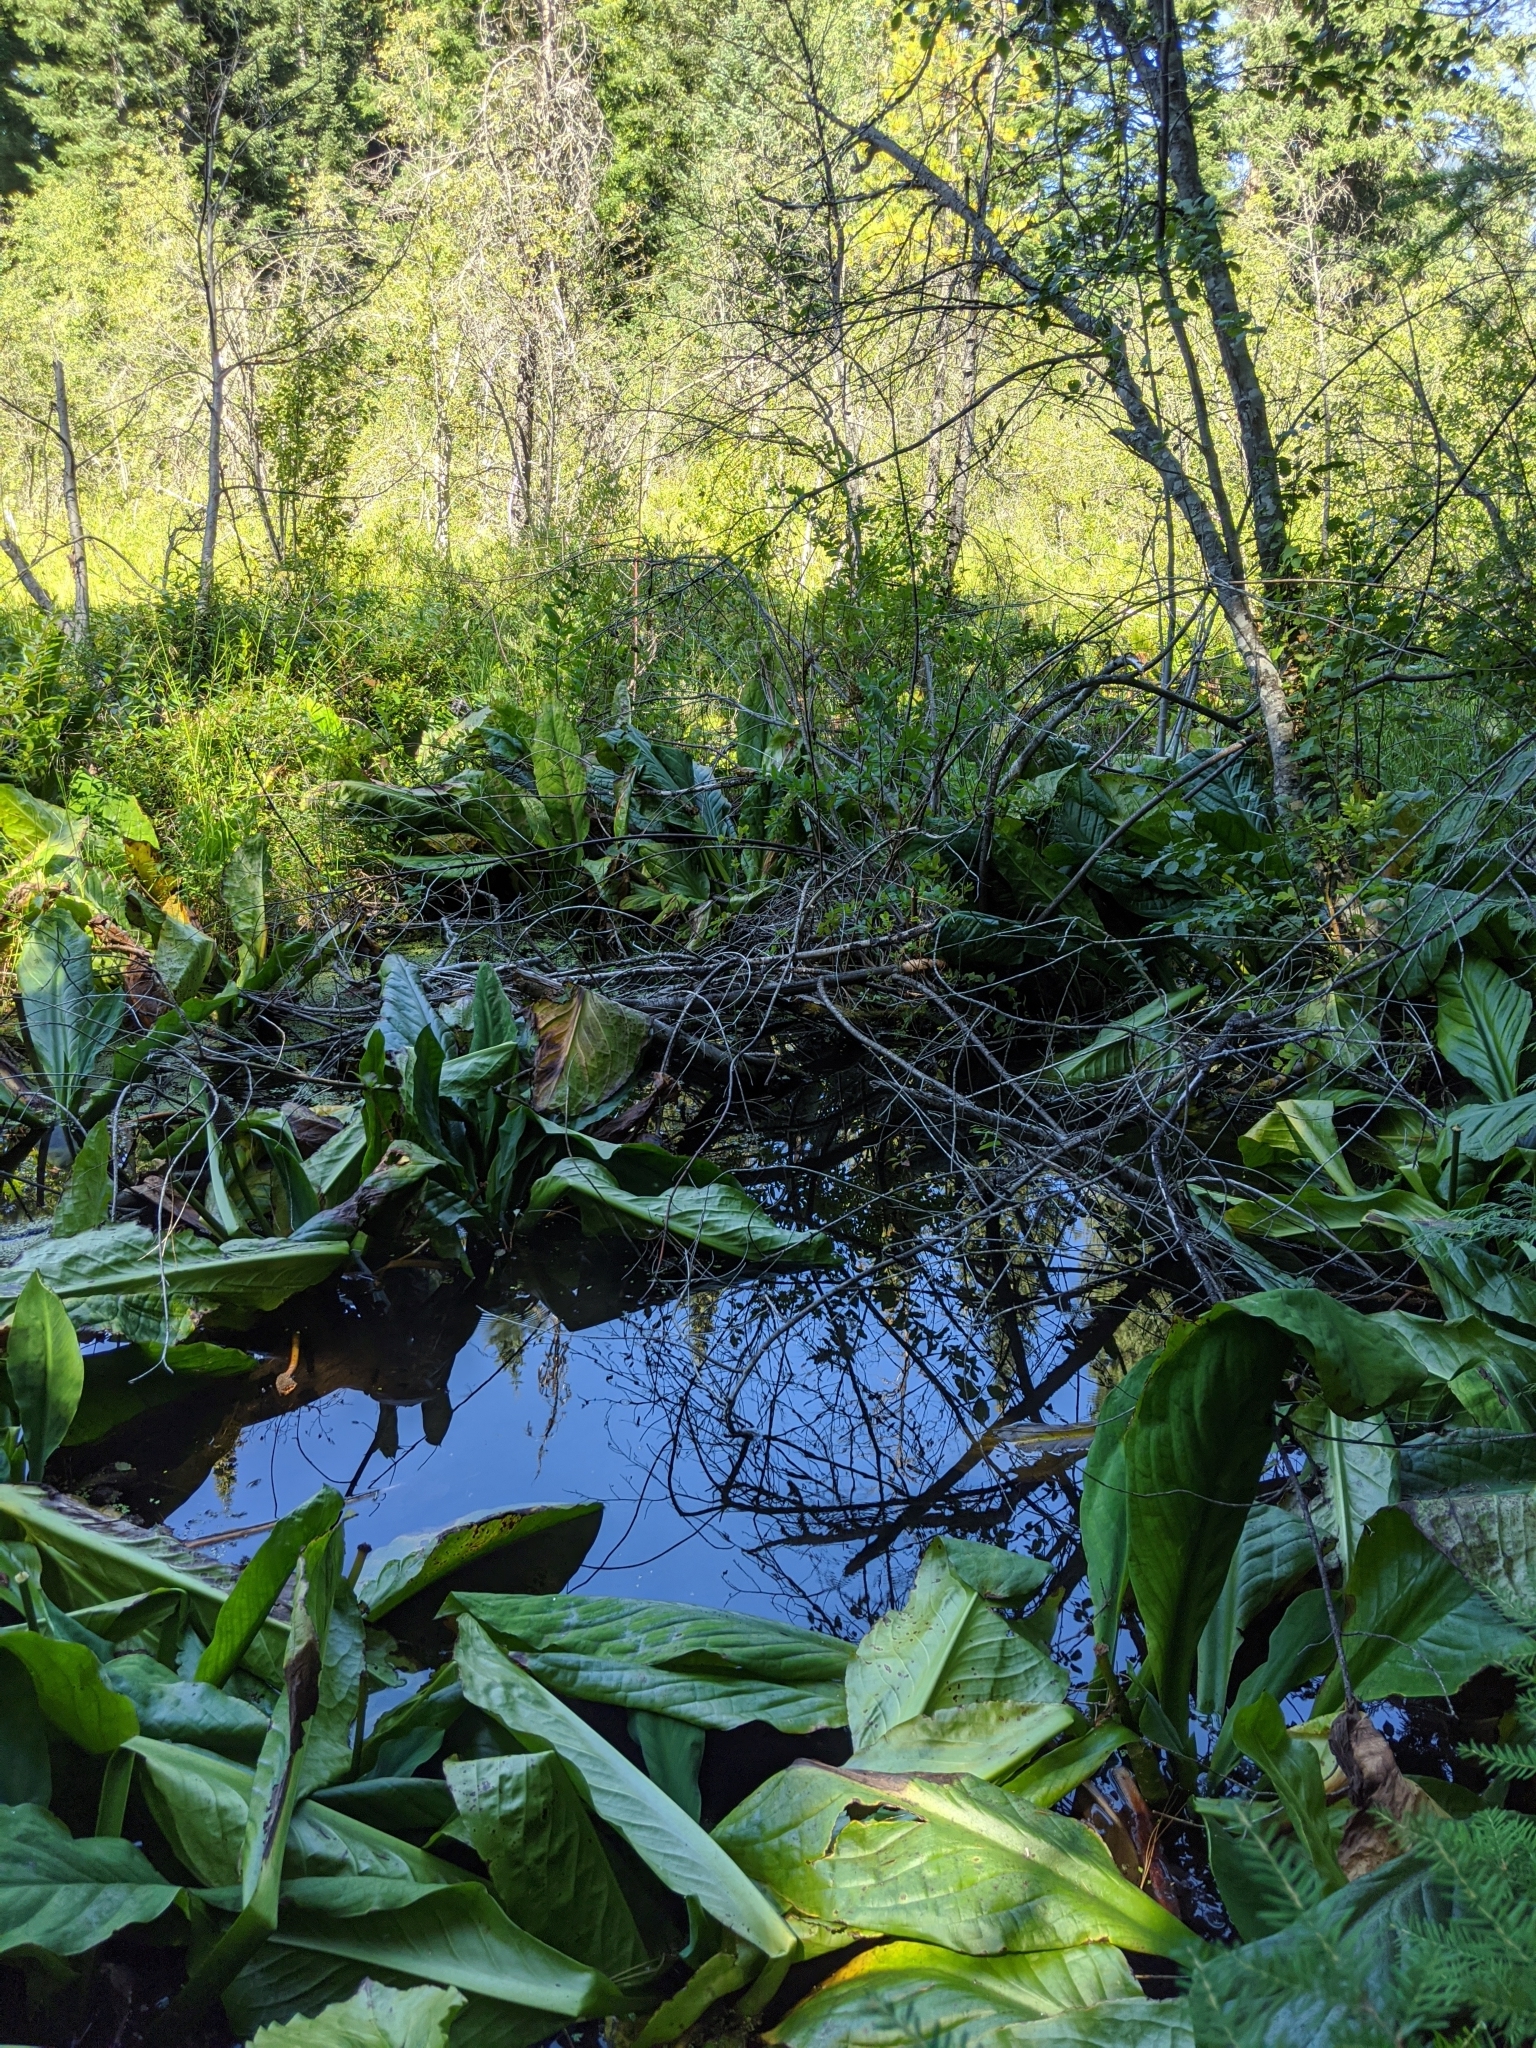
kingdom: Plantae
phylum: Tracheophyta
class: Liliopsida
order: Alismatales
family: Araceae
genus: Lysichiton
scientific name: Lysichiton americanus
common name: American skunk cabbage
